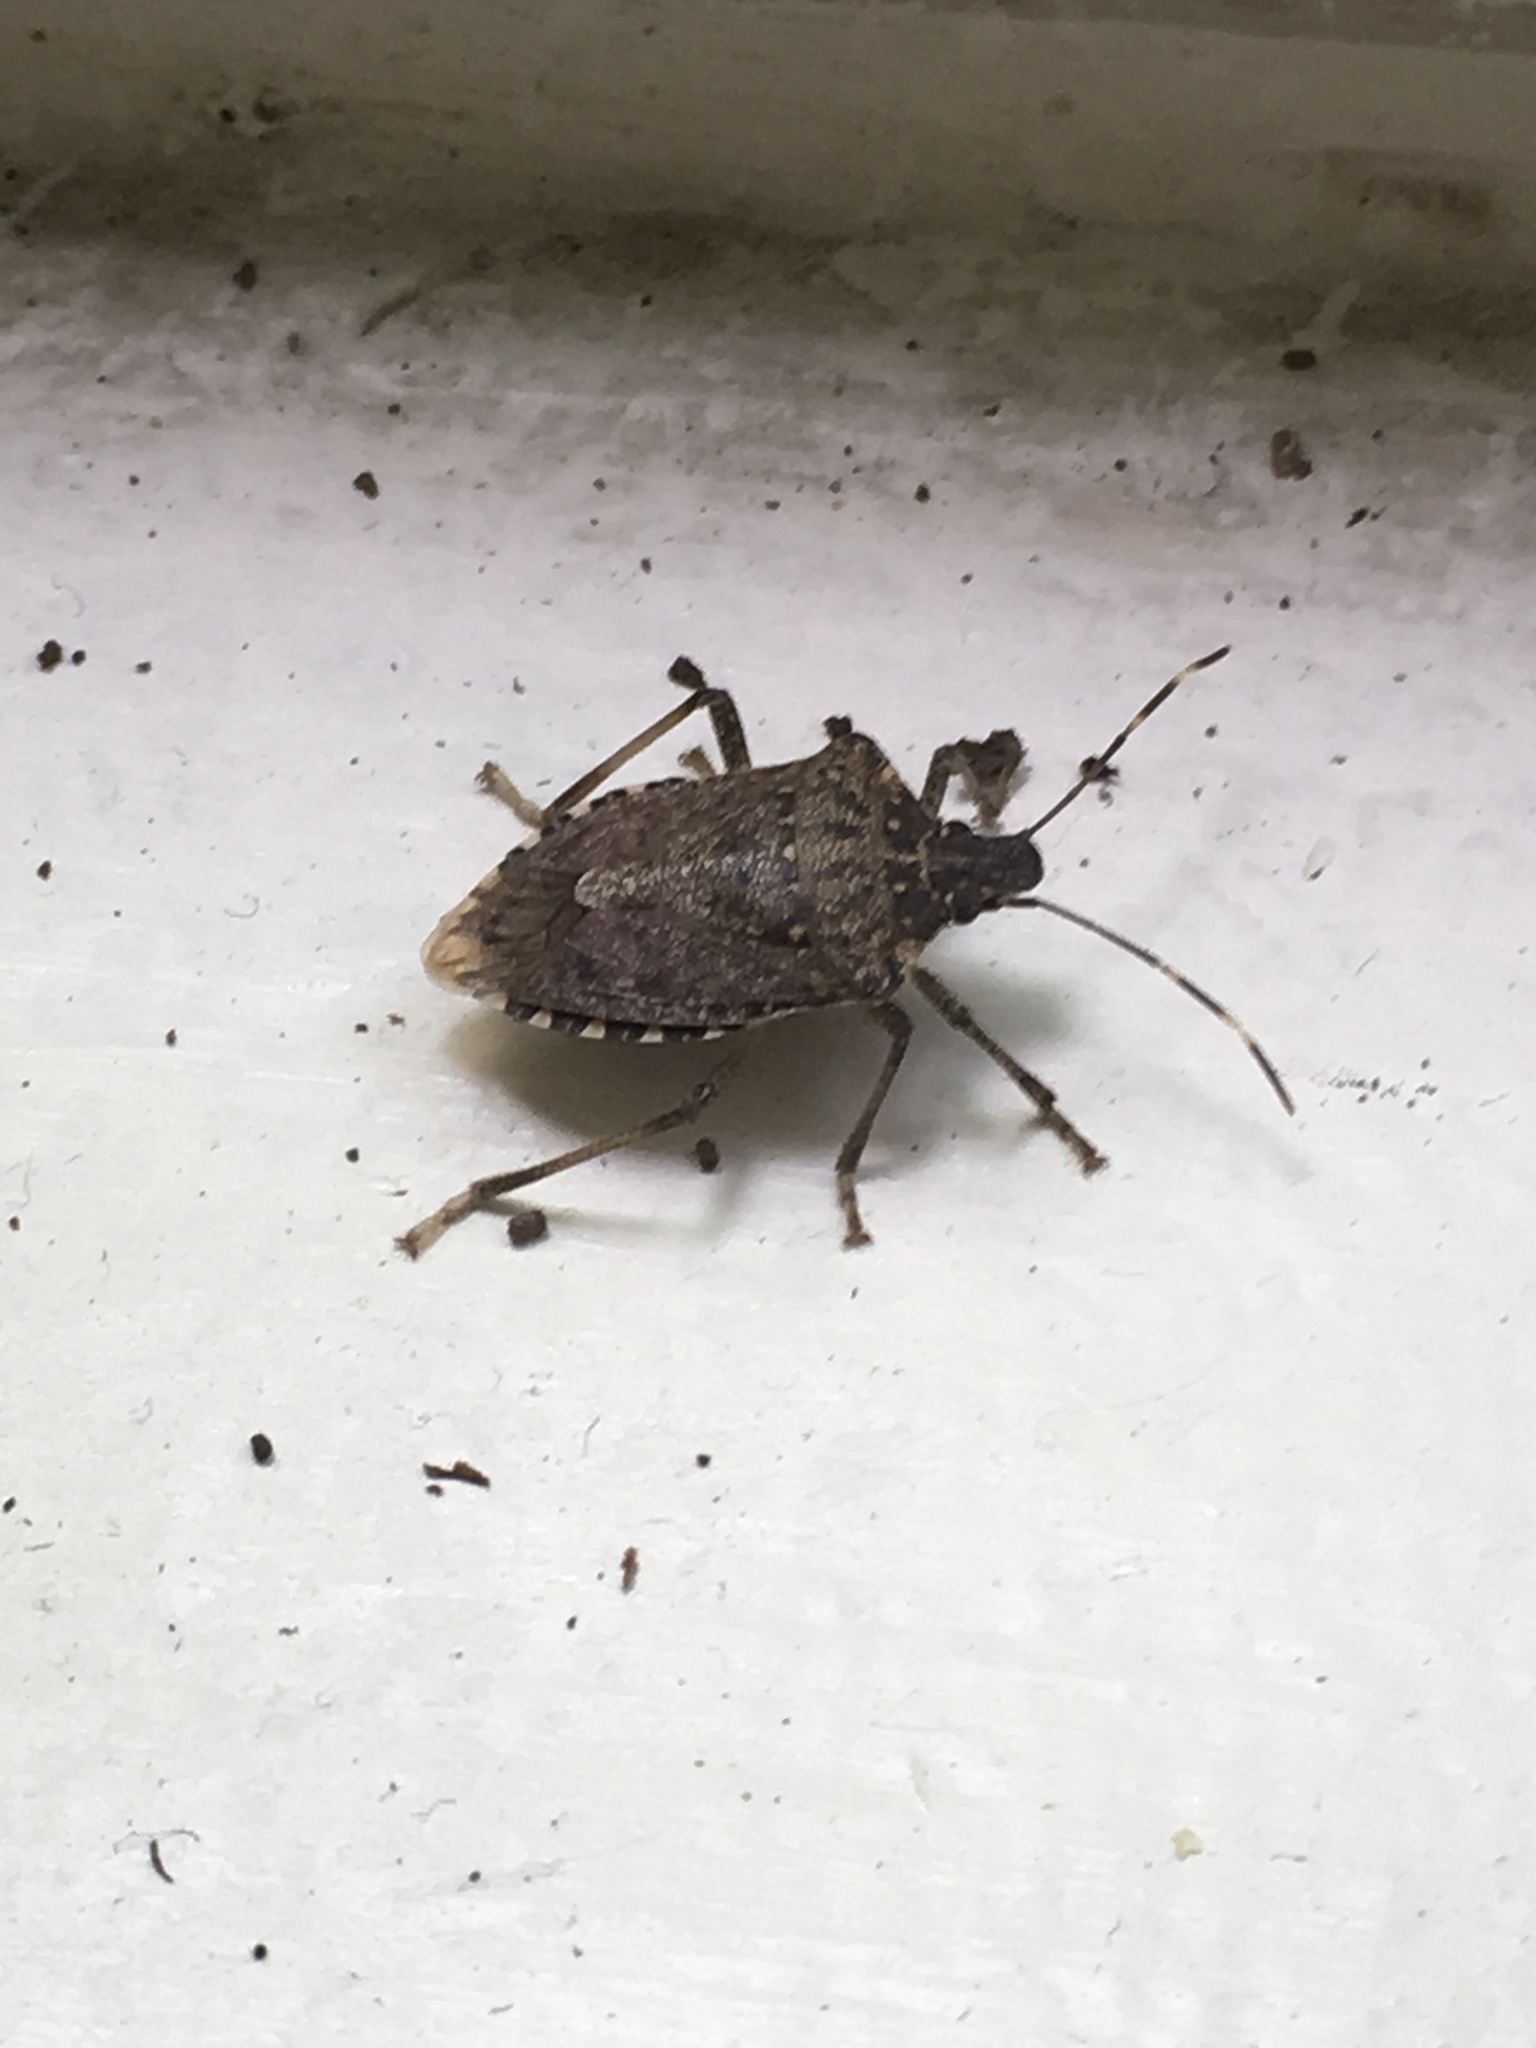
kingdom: Animalia
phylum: Arthropoda
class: Insecta
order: Hemiptera
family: Pentatomidae
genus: Halyomorpha
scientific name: Halyomorpha halys
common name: Brown marmorated stink bug
